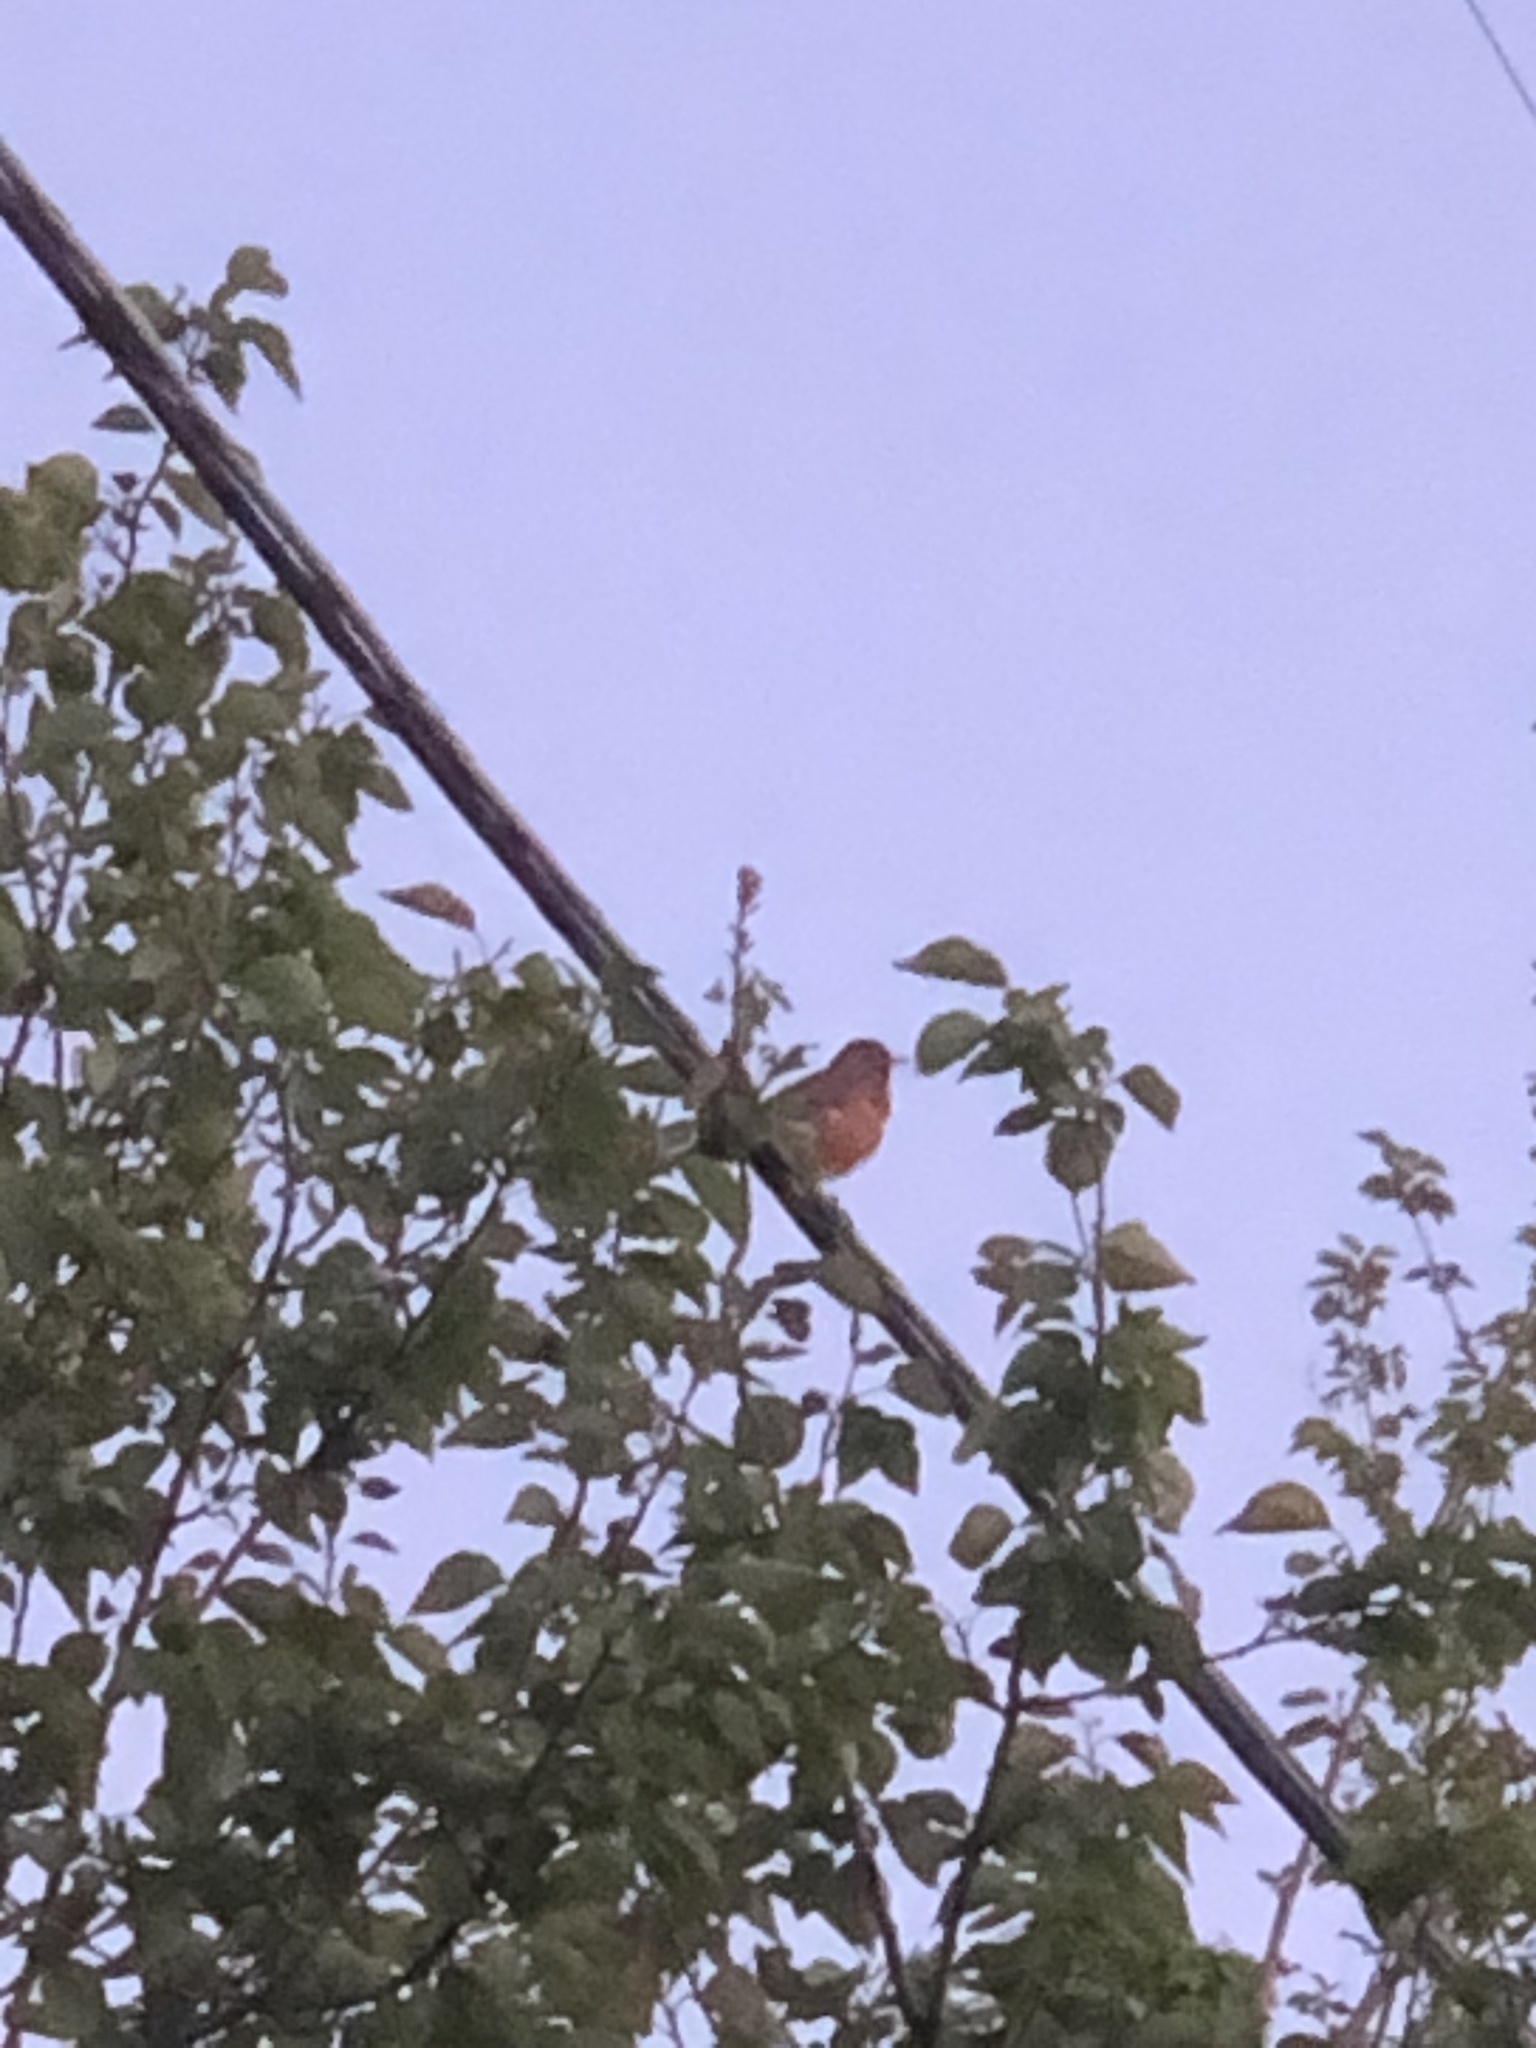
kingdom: Animalia
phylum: Chordata
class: Aves
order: Passeriformes
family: Turdidae
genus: Turdus
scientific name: Turdus migratorius
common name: American robin
